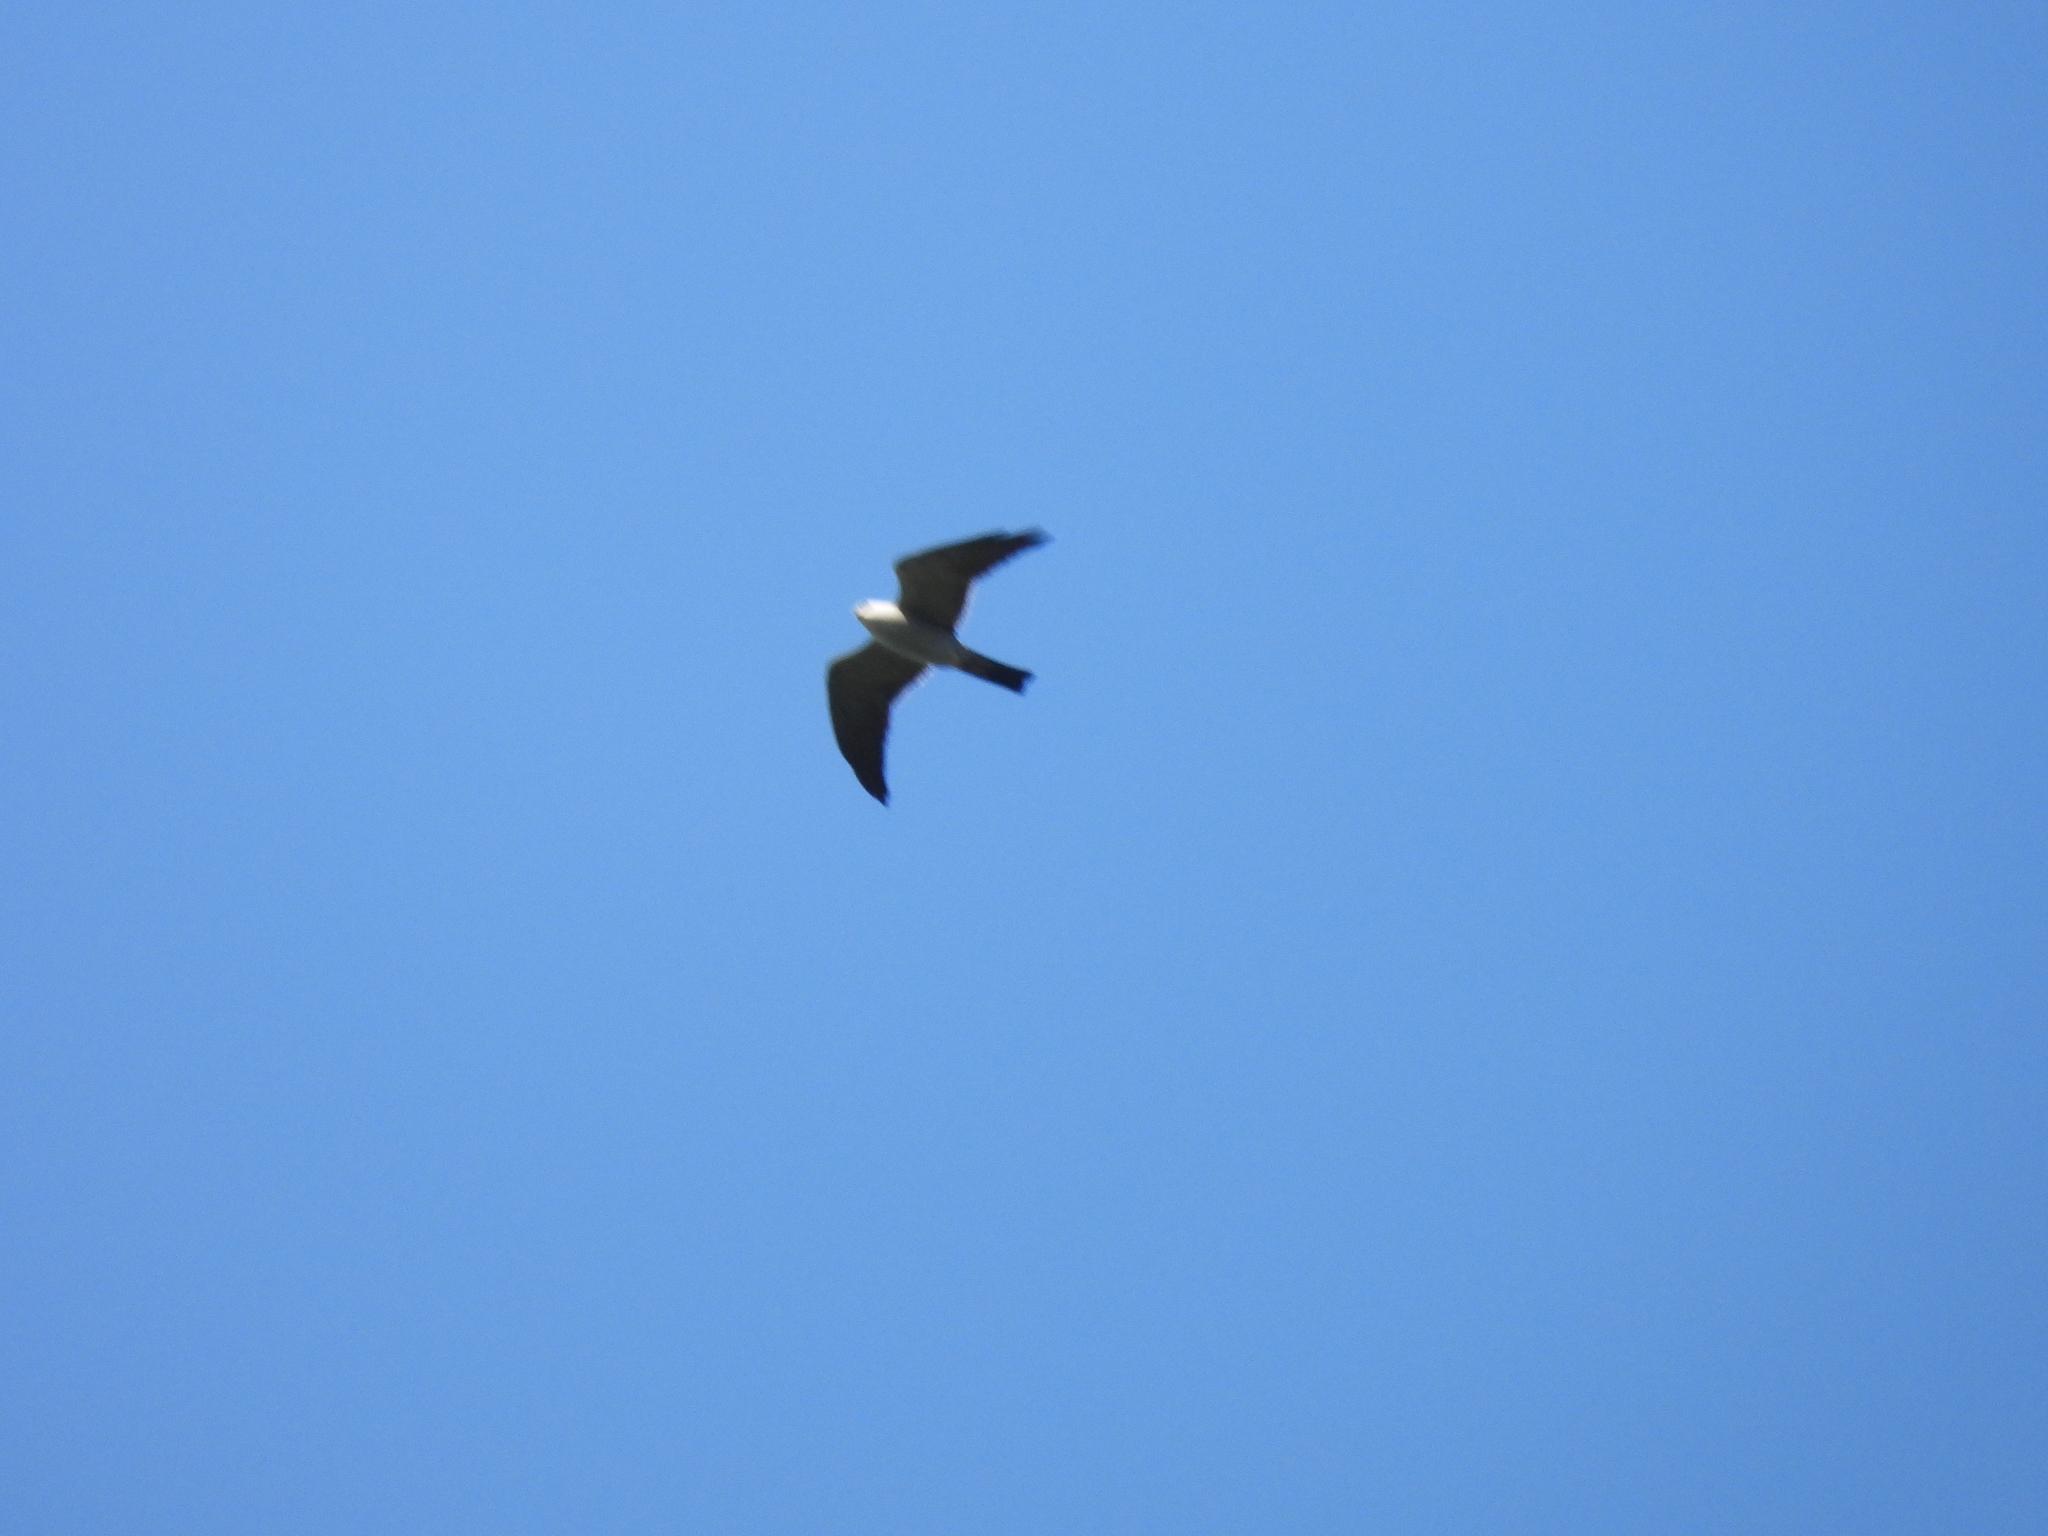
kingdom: Animalia
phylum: Chordata
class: Aves
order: Accipitriformes
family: Accipitridae
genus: Ictinia
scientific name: Ictinia mississippiensis
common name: Mississippi kite
